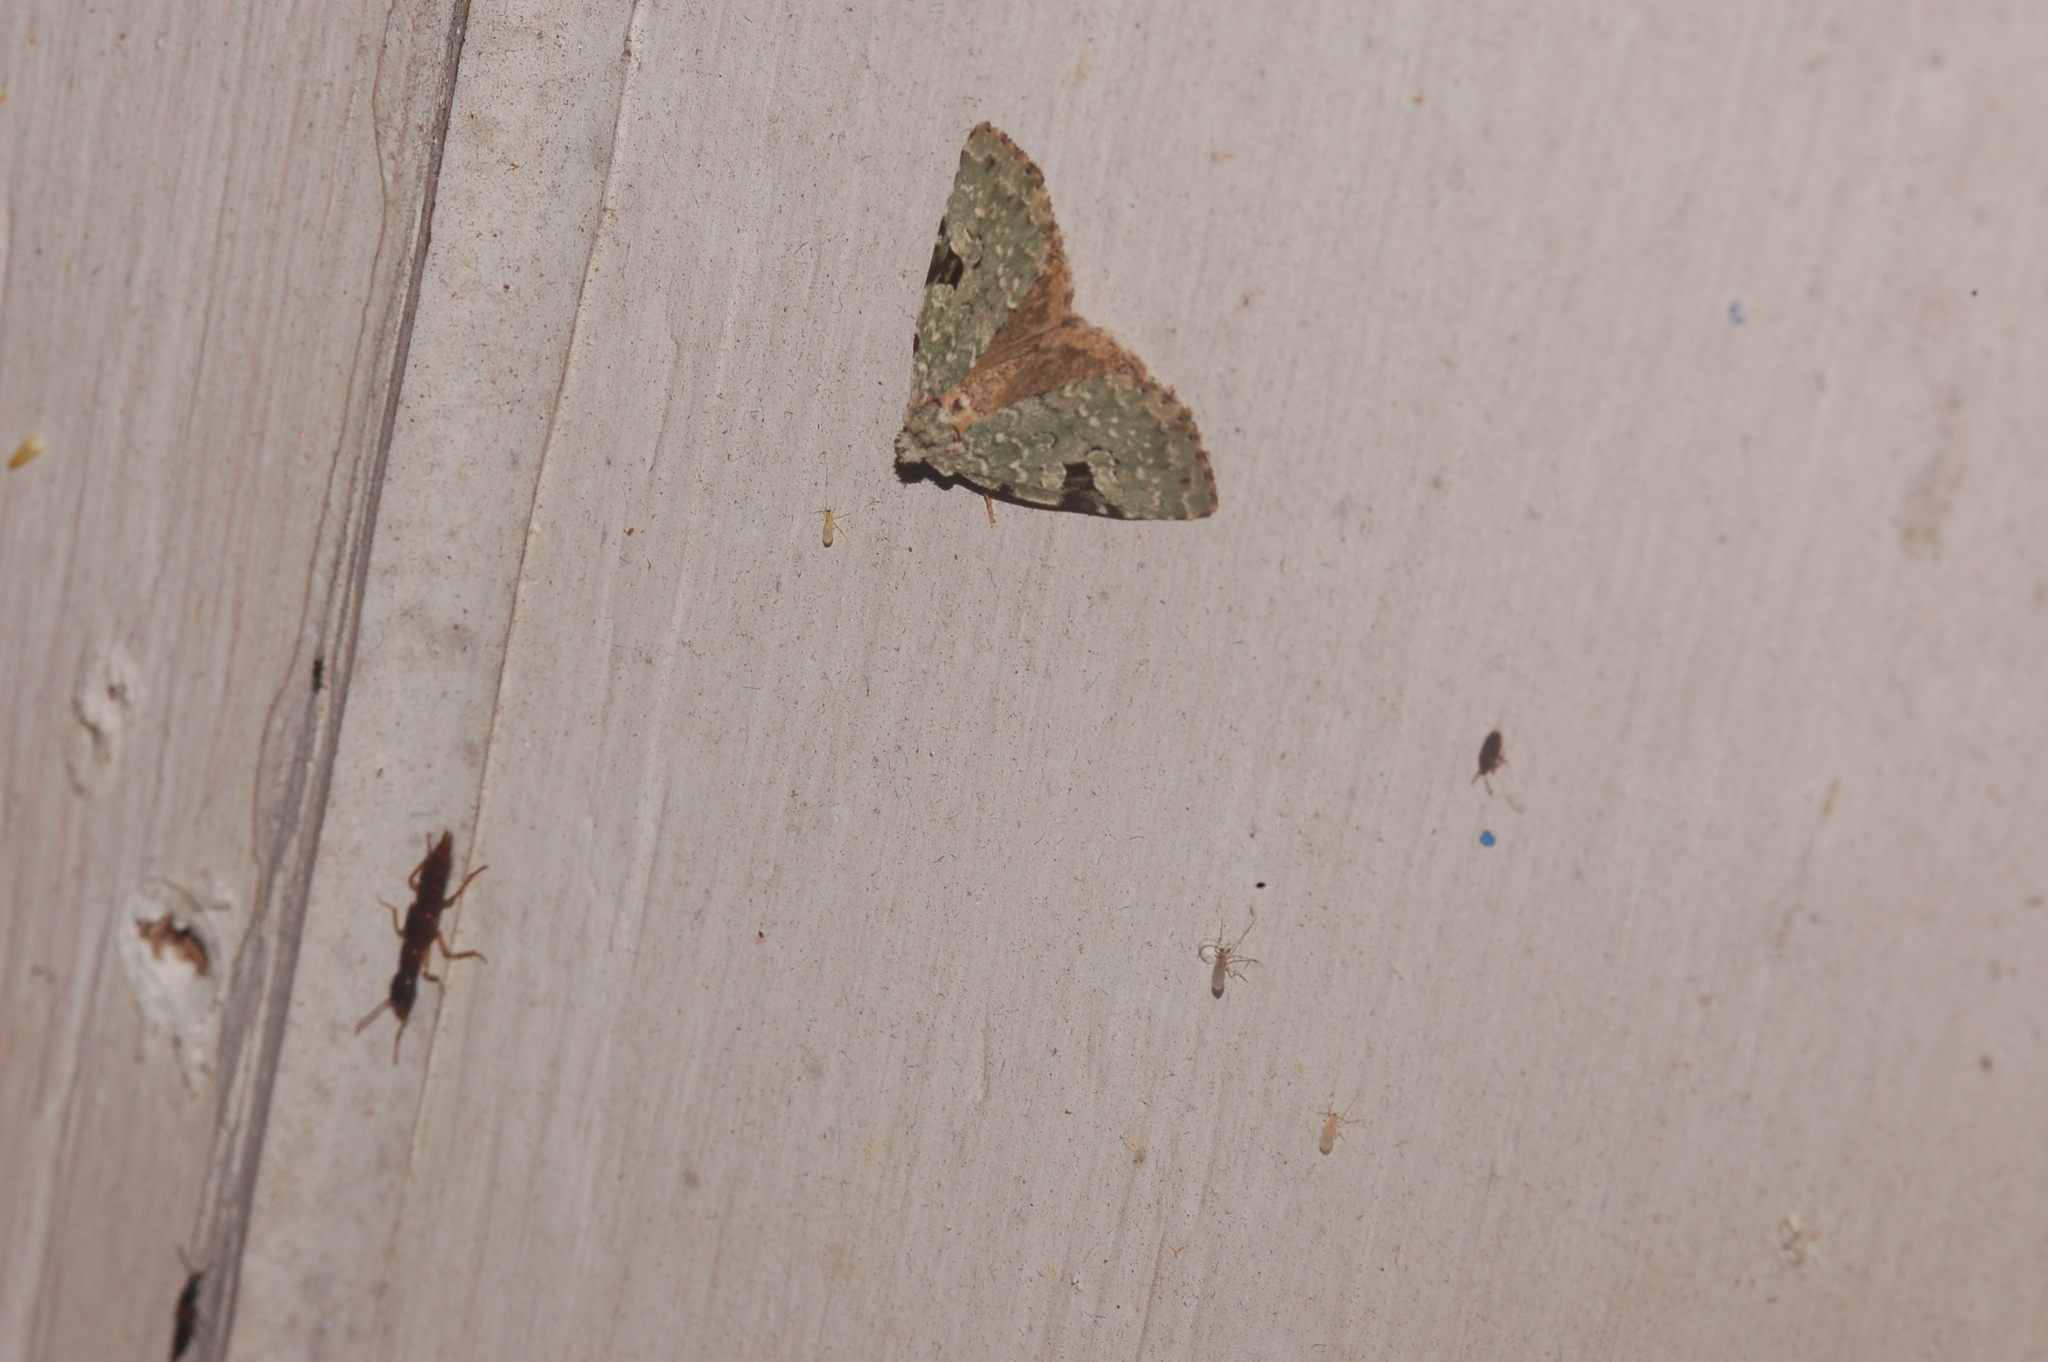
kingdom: Animalia
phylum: Arthropoda
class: Insecta
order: Lepidoptera
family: Noctuidae
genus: Leuconycta
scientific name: Leuconycta diphteroides
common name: Green leuconycta moth
